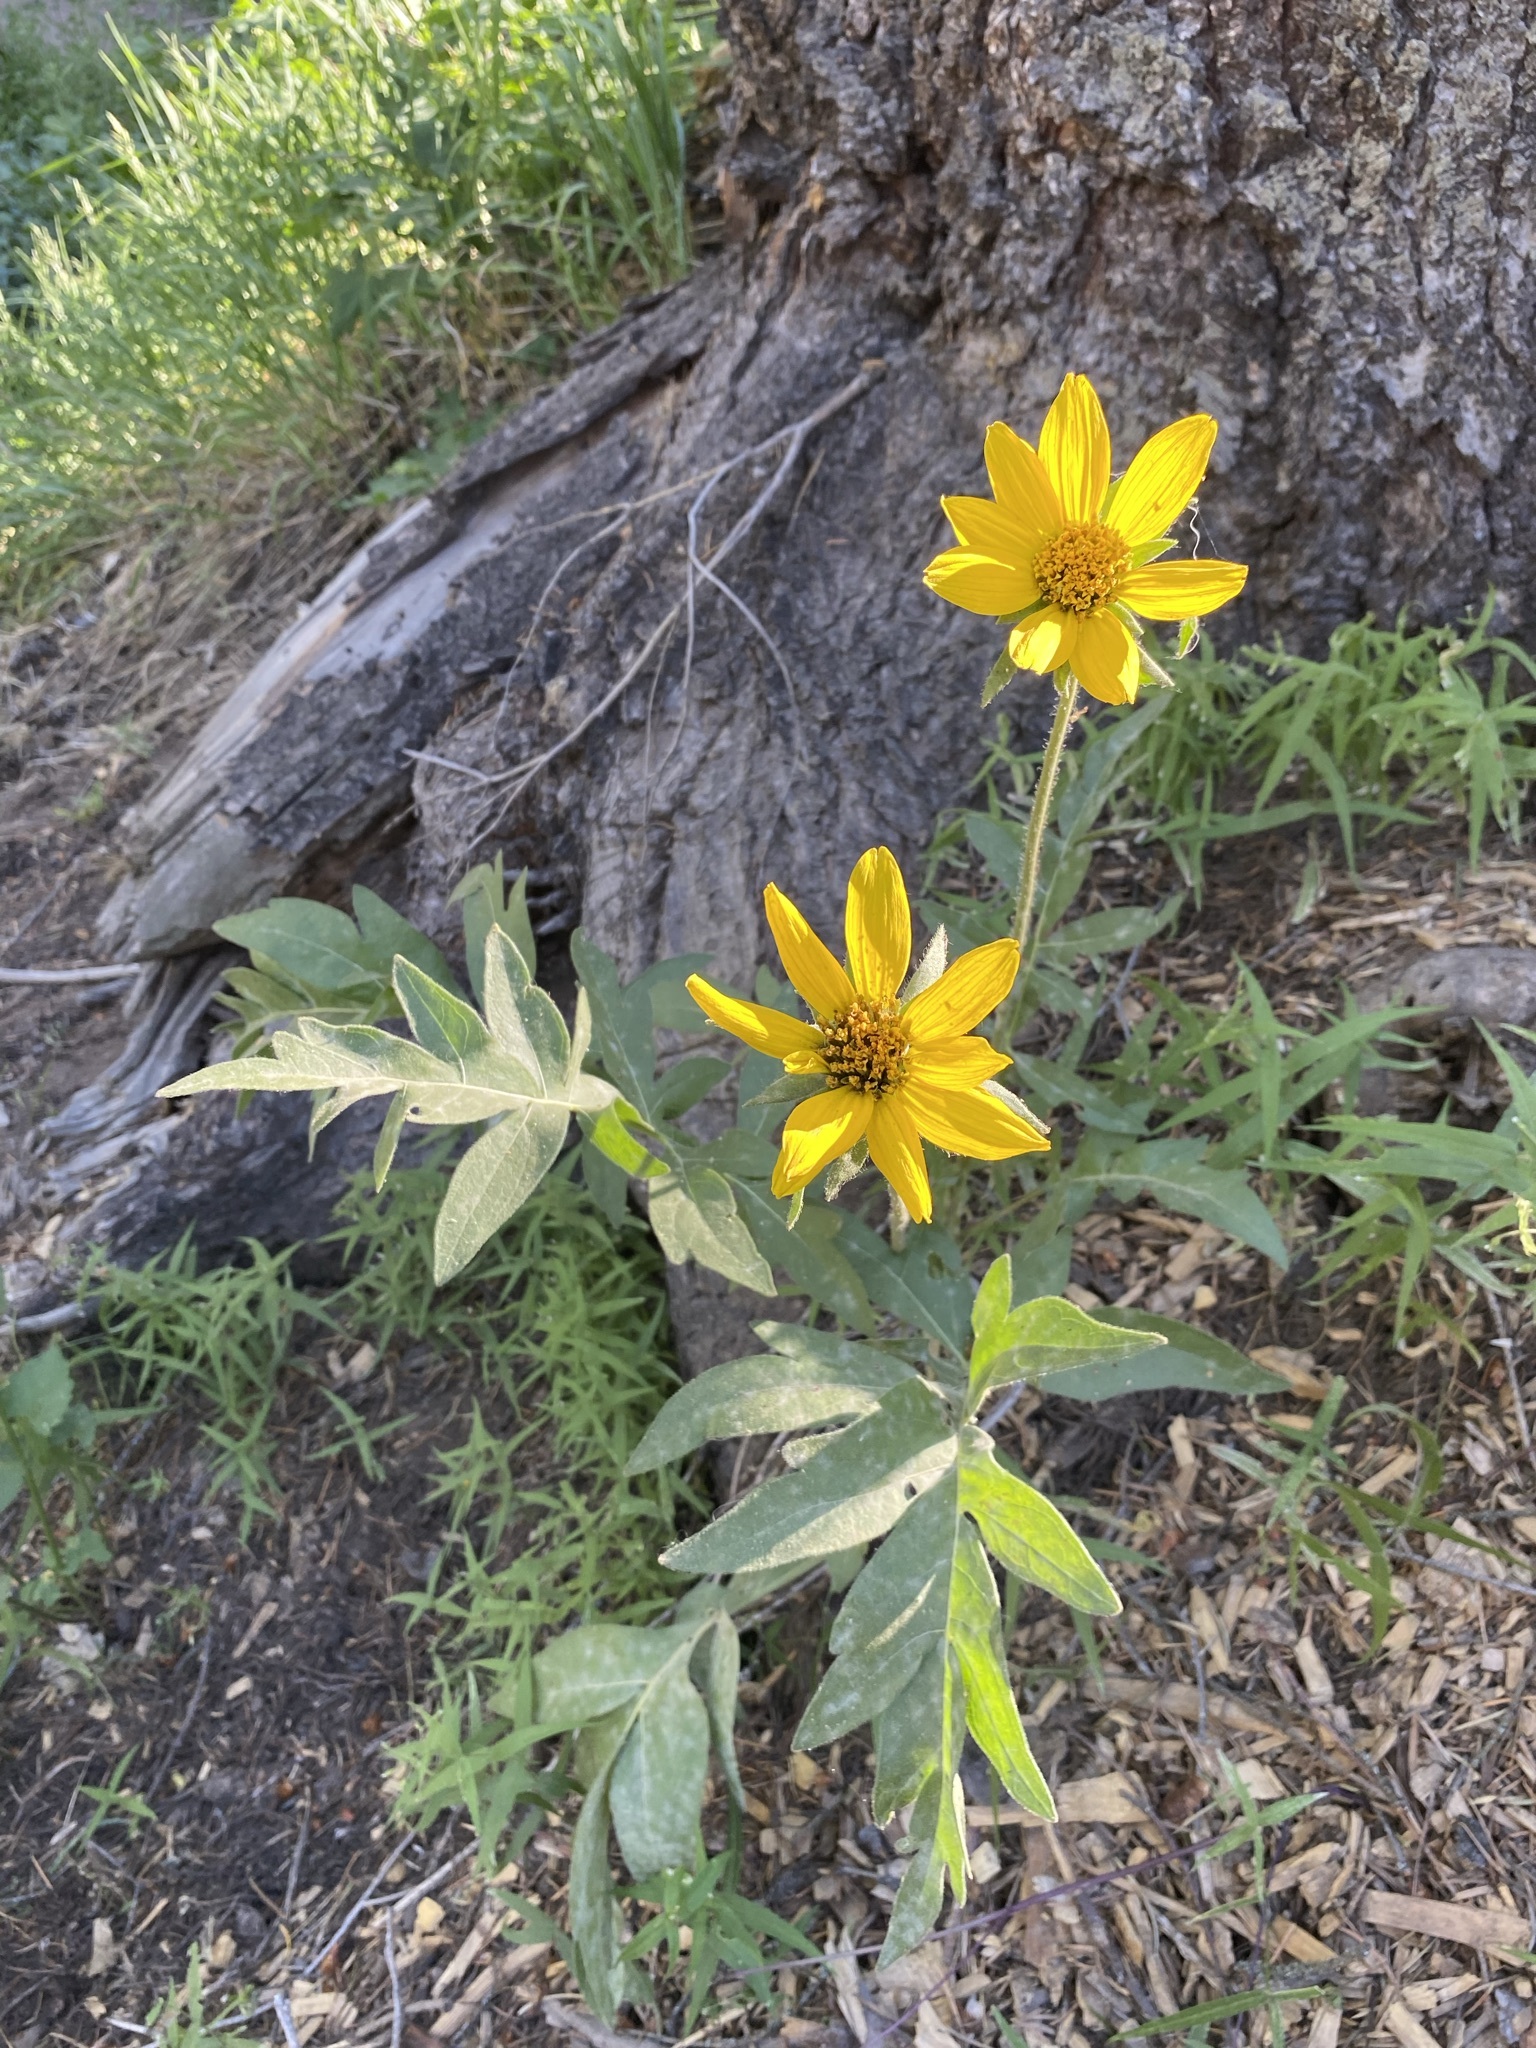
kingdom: Plantae
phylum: Tracheophyta
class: Magnoliopsida
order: Asterales
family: Asteraceae
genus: Balsamorhiza
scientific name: Balsamorhiza macrophylla
